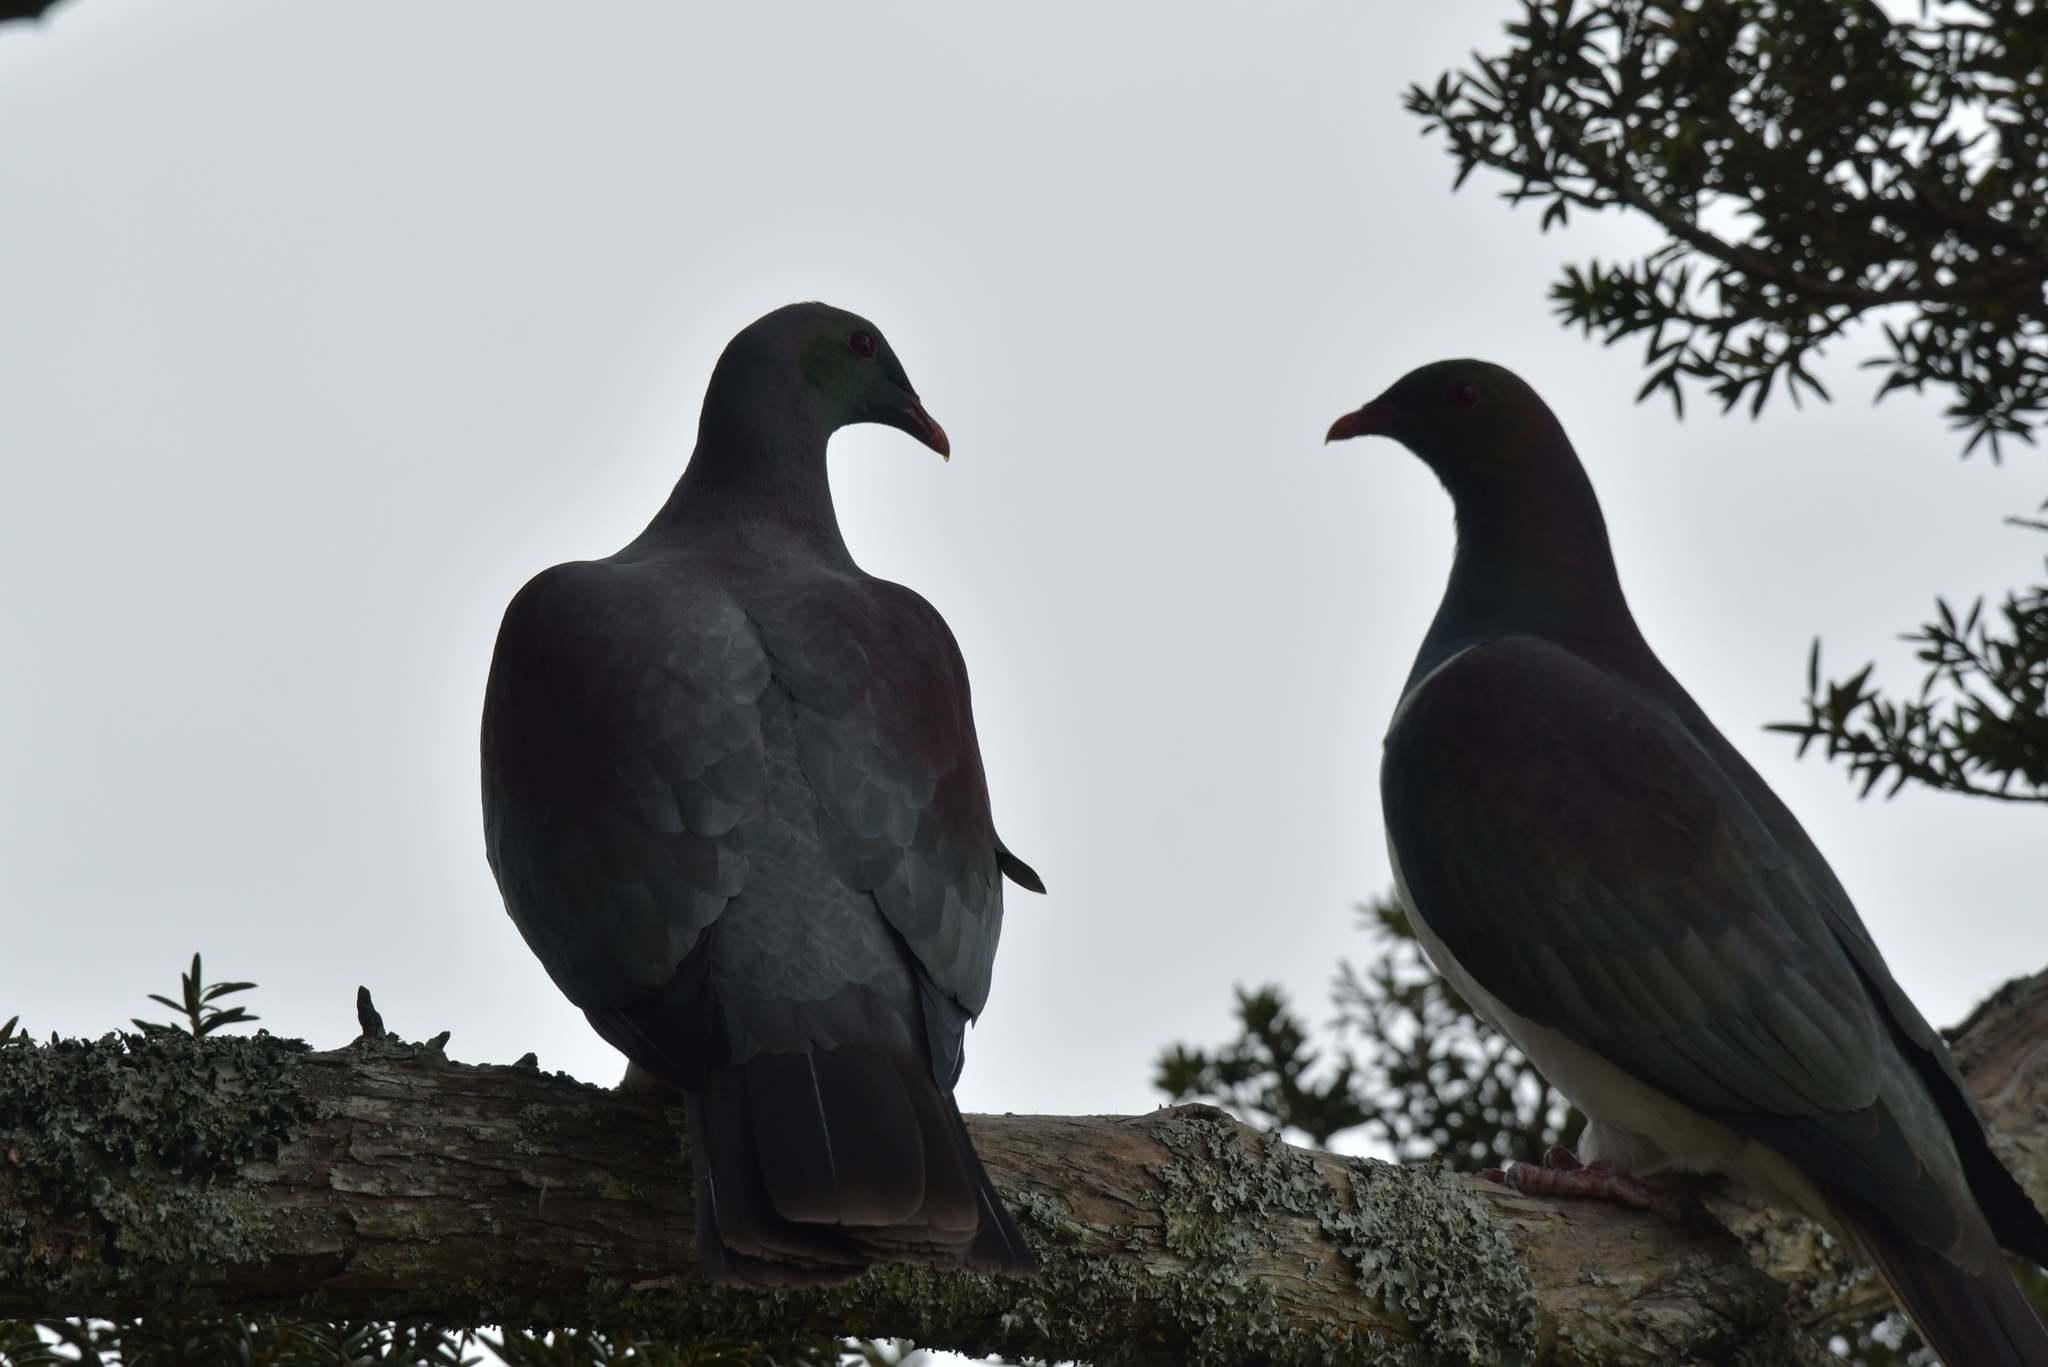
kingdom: Animalia
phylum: Chordata
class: Aves
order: Columbiformes
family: Columbidae
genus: Hemiphaga
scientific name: Hemiphaga novaeseelandiae
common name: New zealand pigeon
